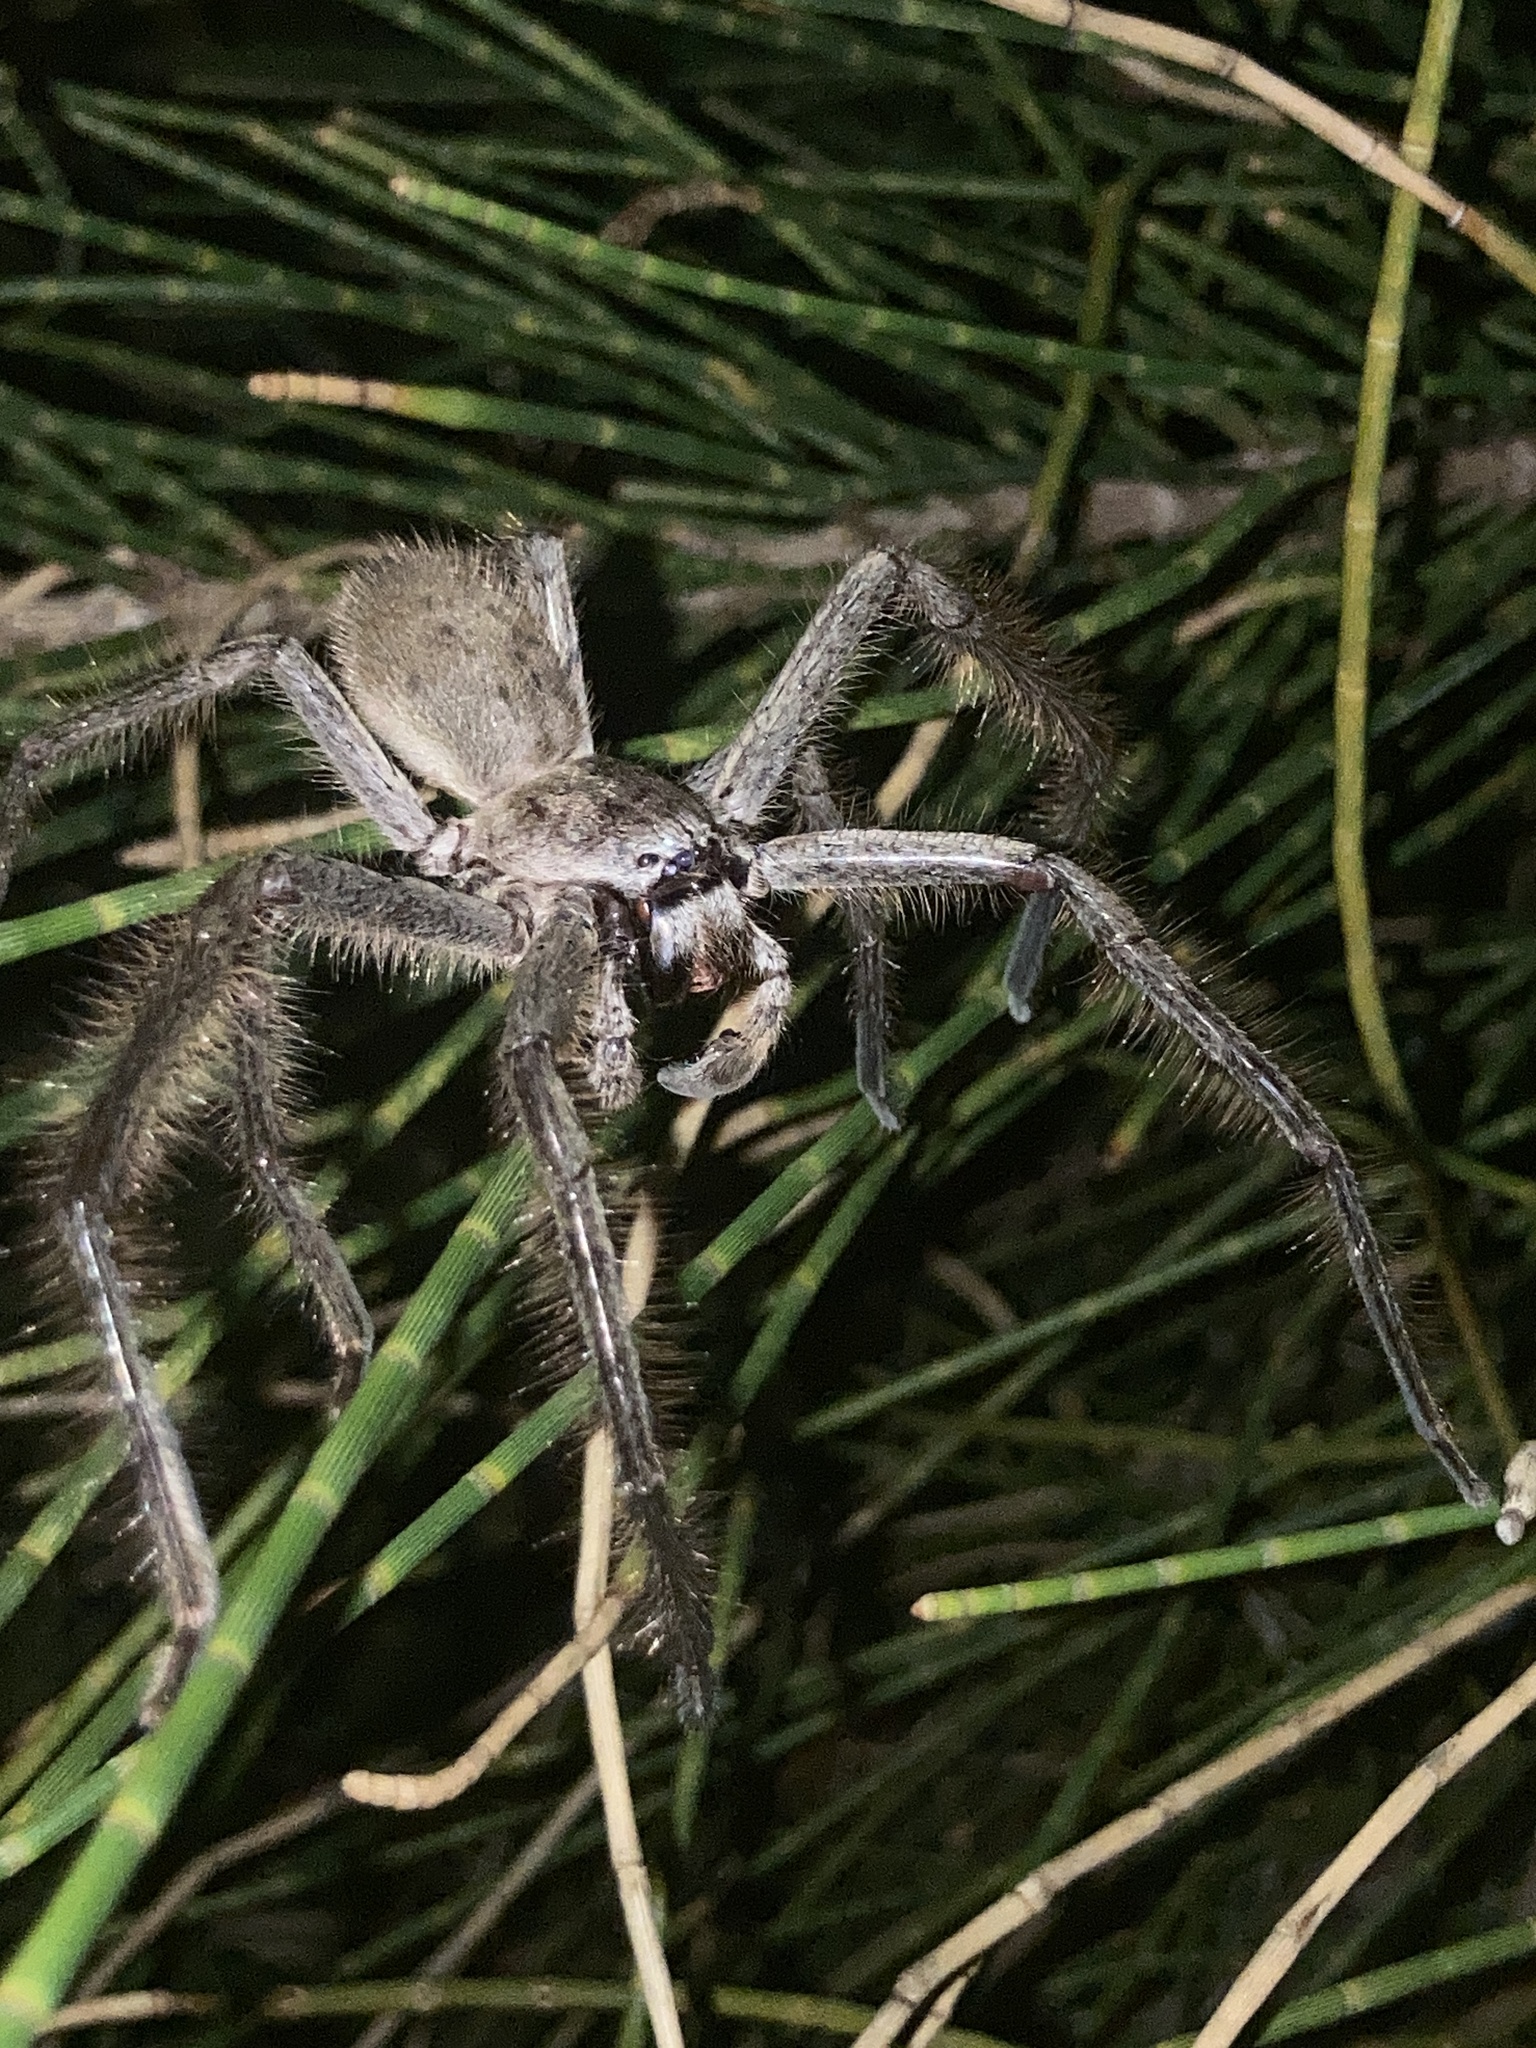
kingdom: Animalia
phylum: Arthropoda
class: Arachnida
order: Araneae
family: Sparassidae
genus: Isopeda
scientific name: Isopeda villosa
